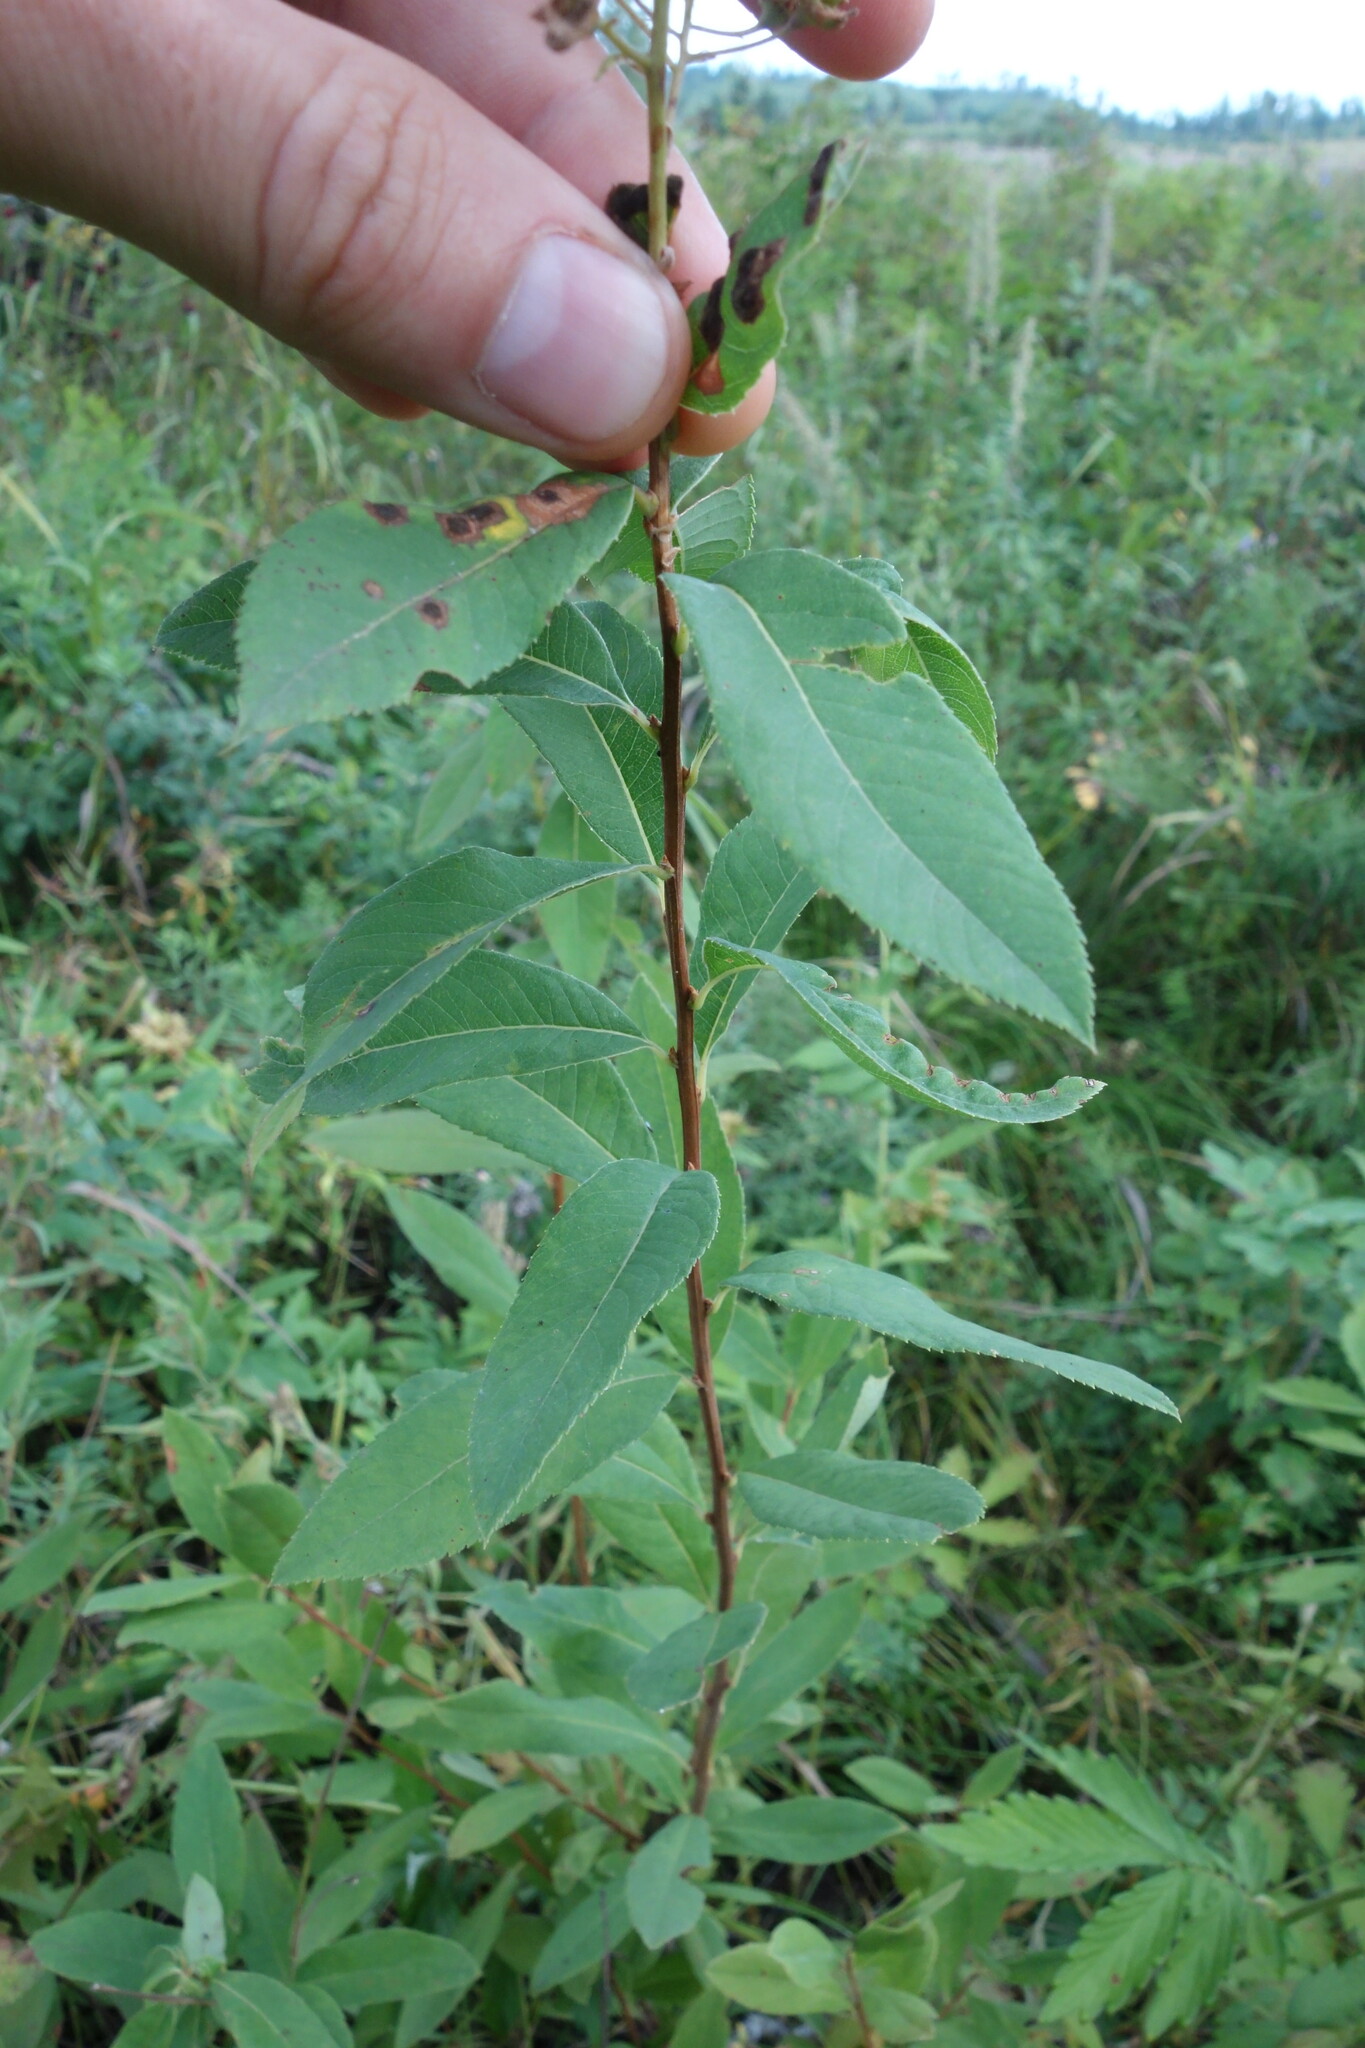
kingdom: Plantae
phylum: Tracheophyta
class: Magnoliopsida
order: Rosales
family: Rosaceae
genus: Spiraea
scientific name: Spiraea salicifolia
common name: Bridewort
